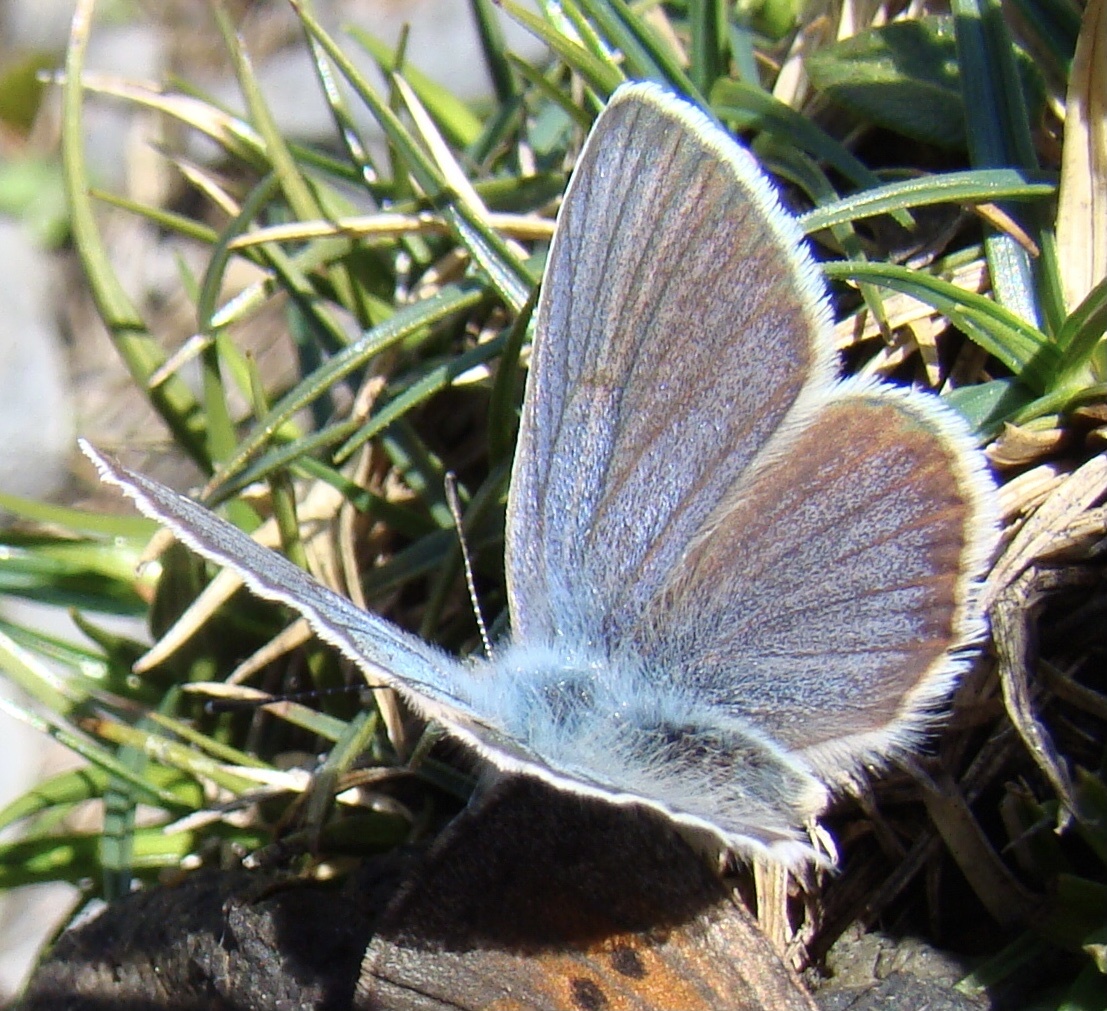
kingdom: Animalia
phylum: Arthropoda
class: Insecta
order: Lepidoptera
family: Lycaenidae
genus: Cyaniris
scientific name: Cyaniris semiargus
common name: Mazarine blue
